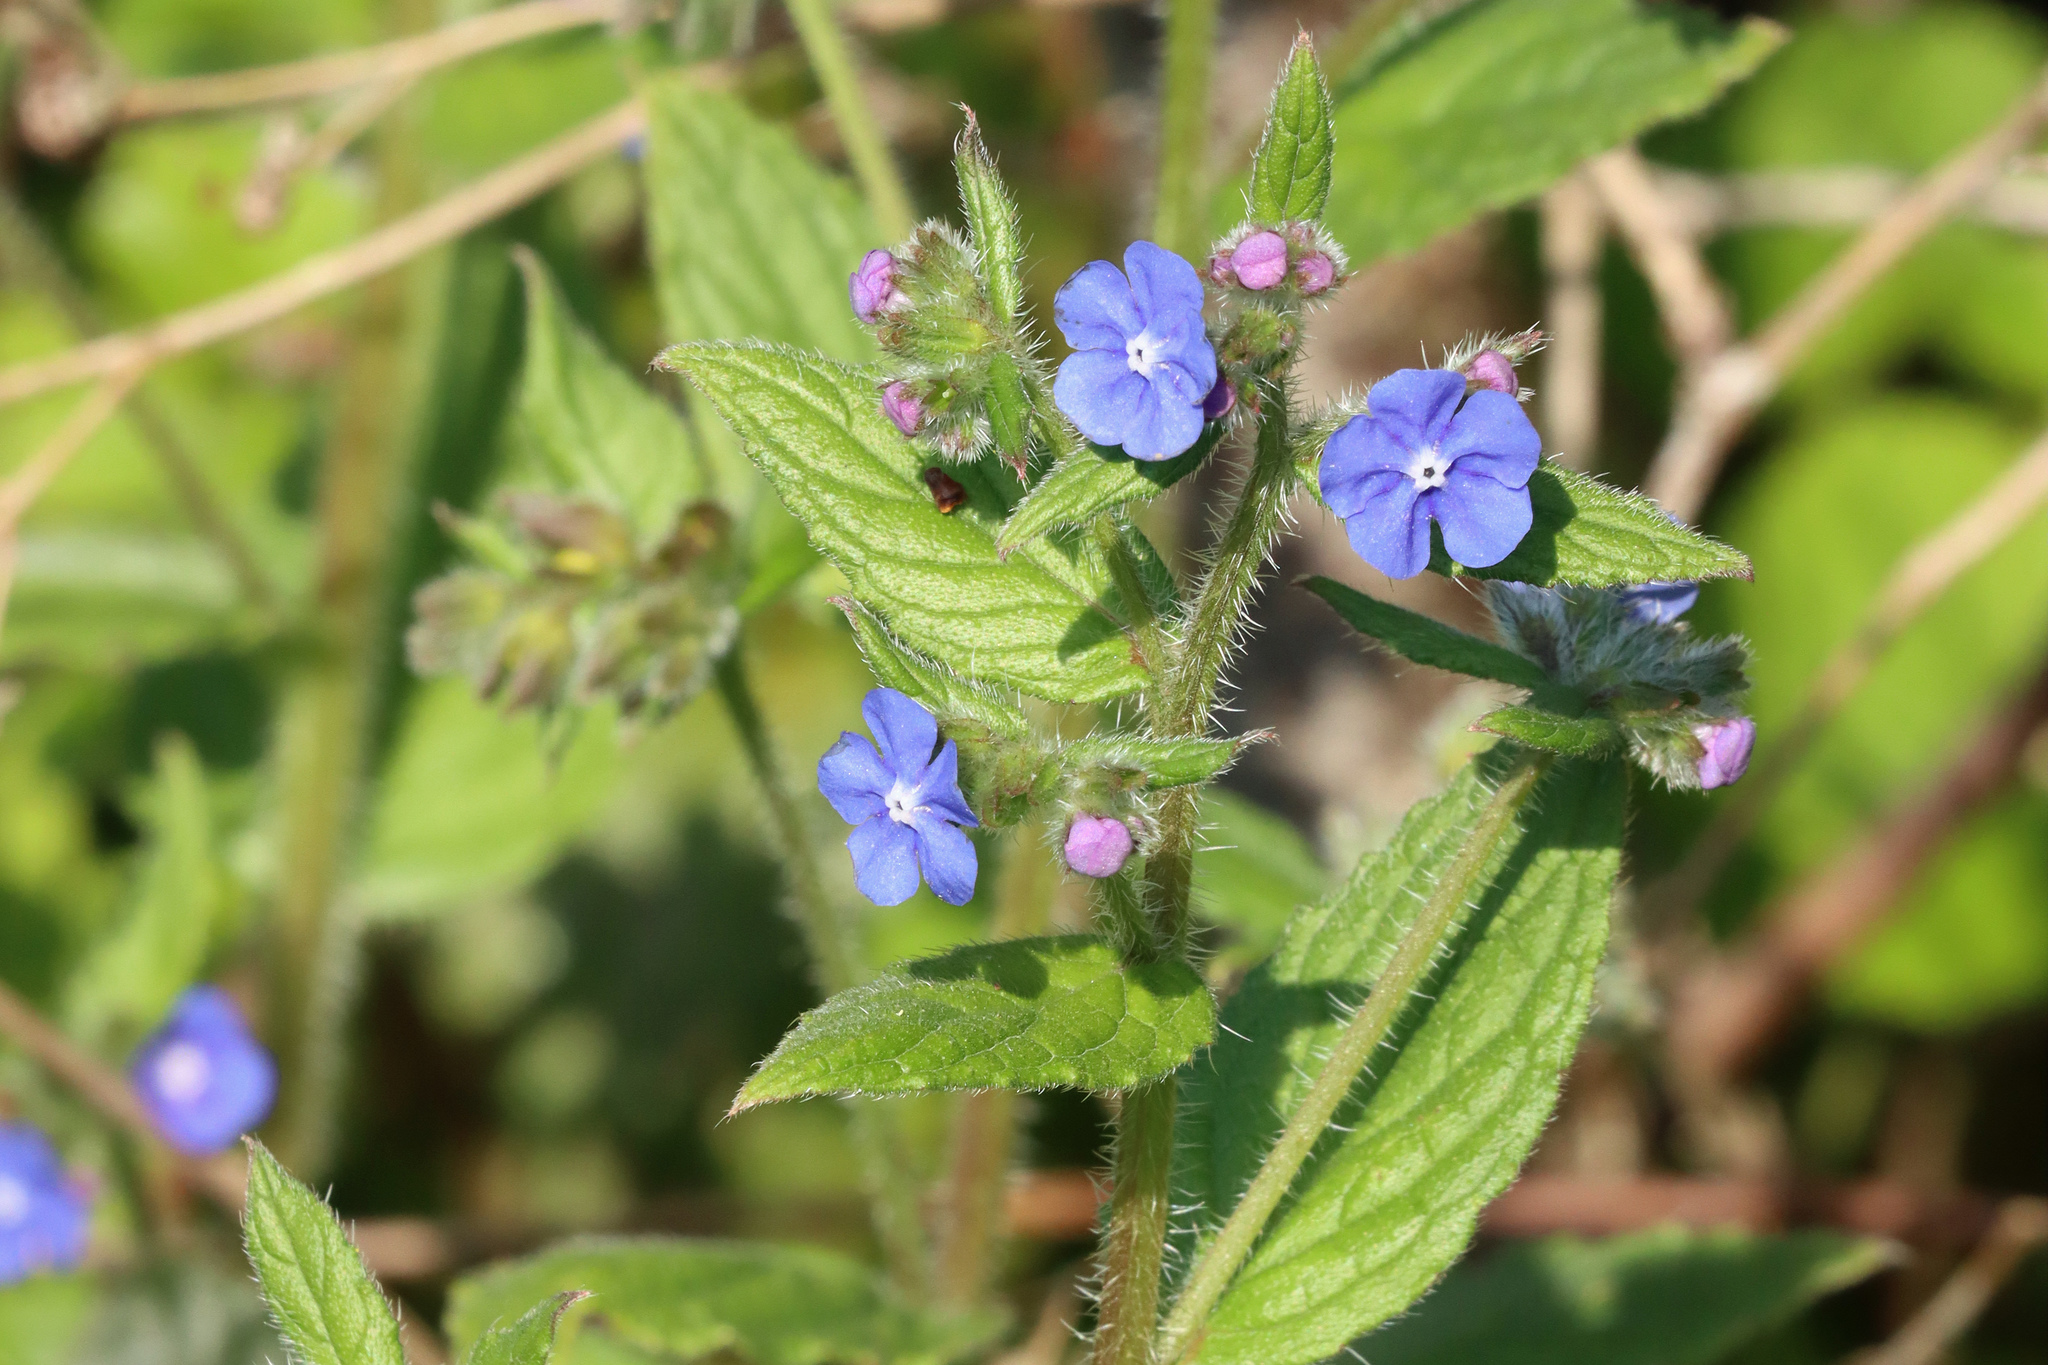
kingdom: Plantae
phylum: Tracheophyta
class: Magnoliopsida
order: Boraginales
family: Boraginaceae
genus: Pentaglottis
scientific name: Pentaglottis sempervirens
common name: Green alkanet
